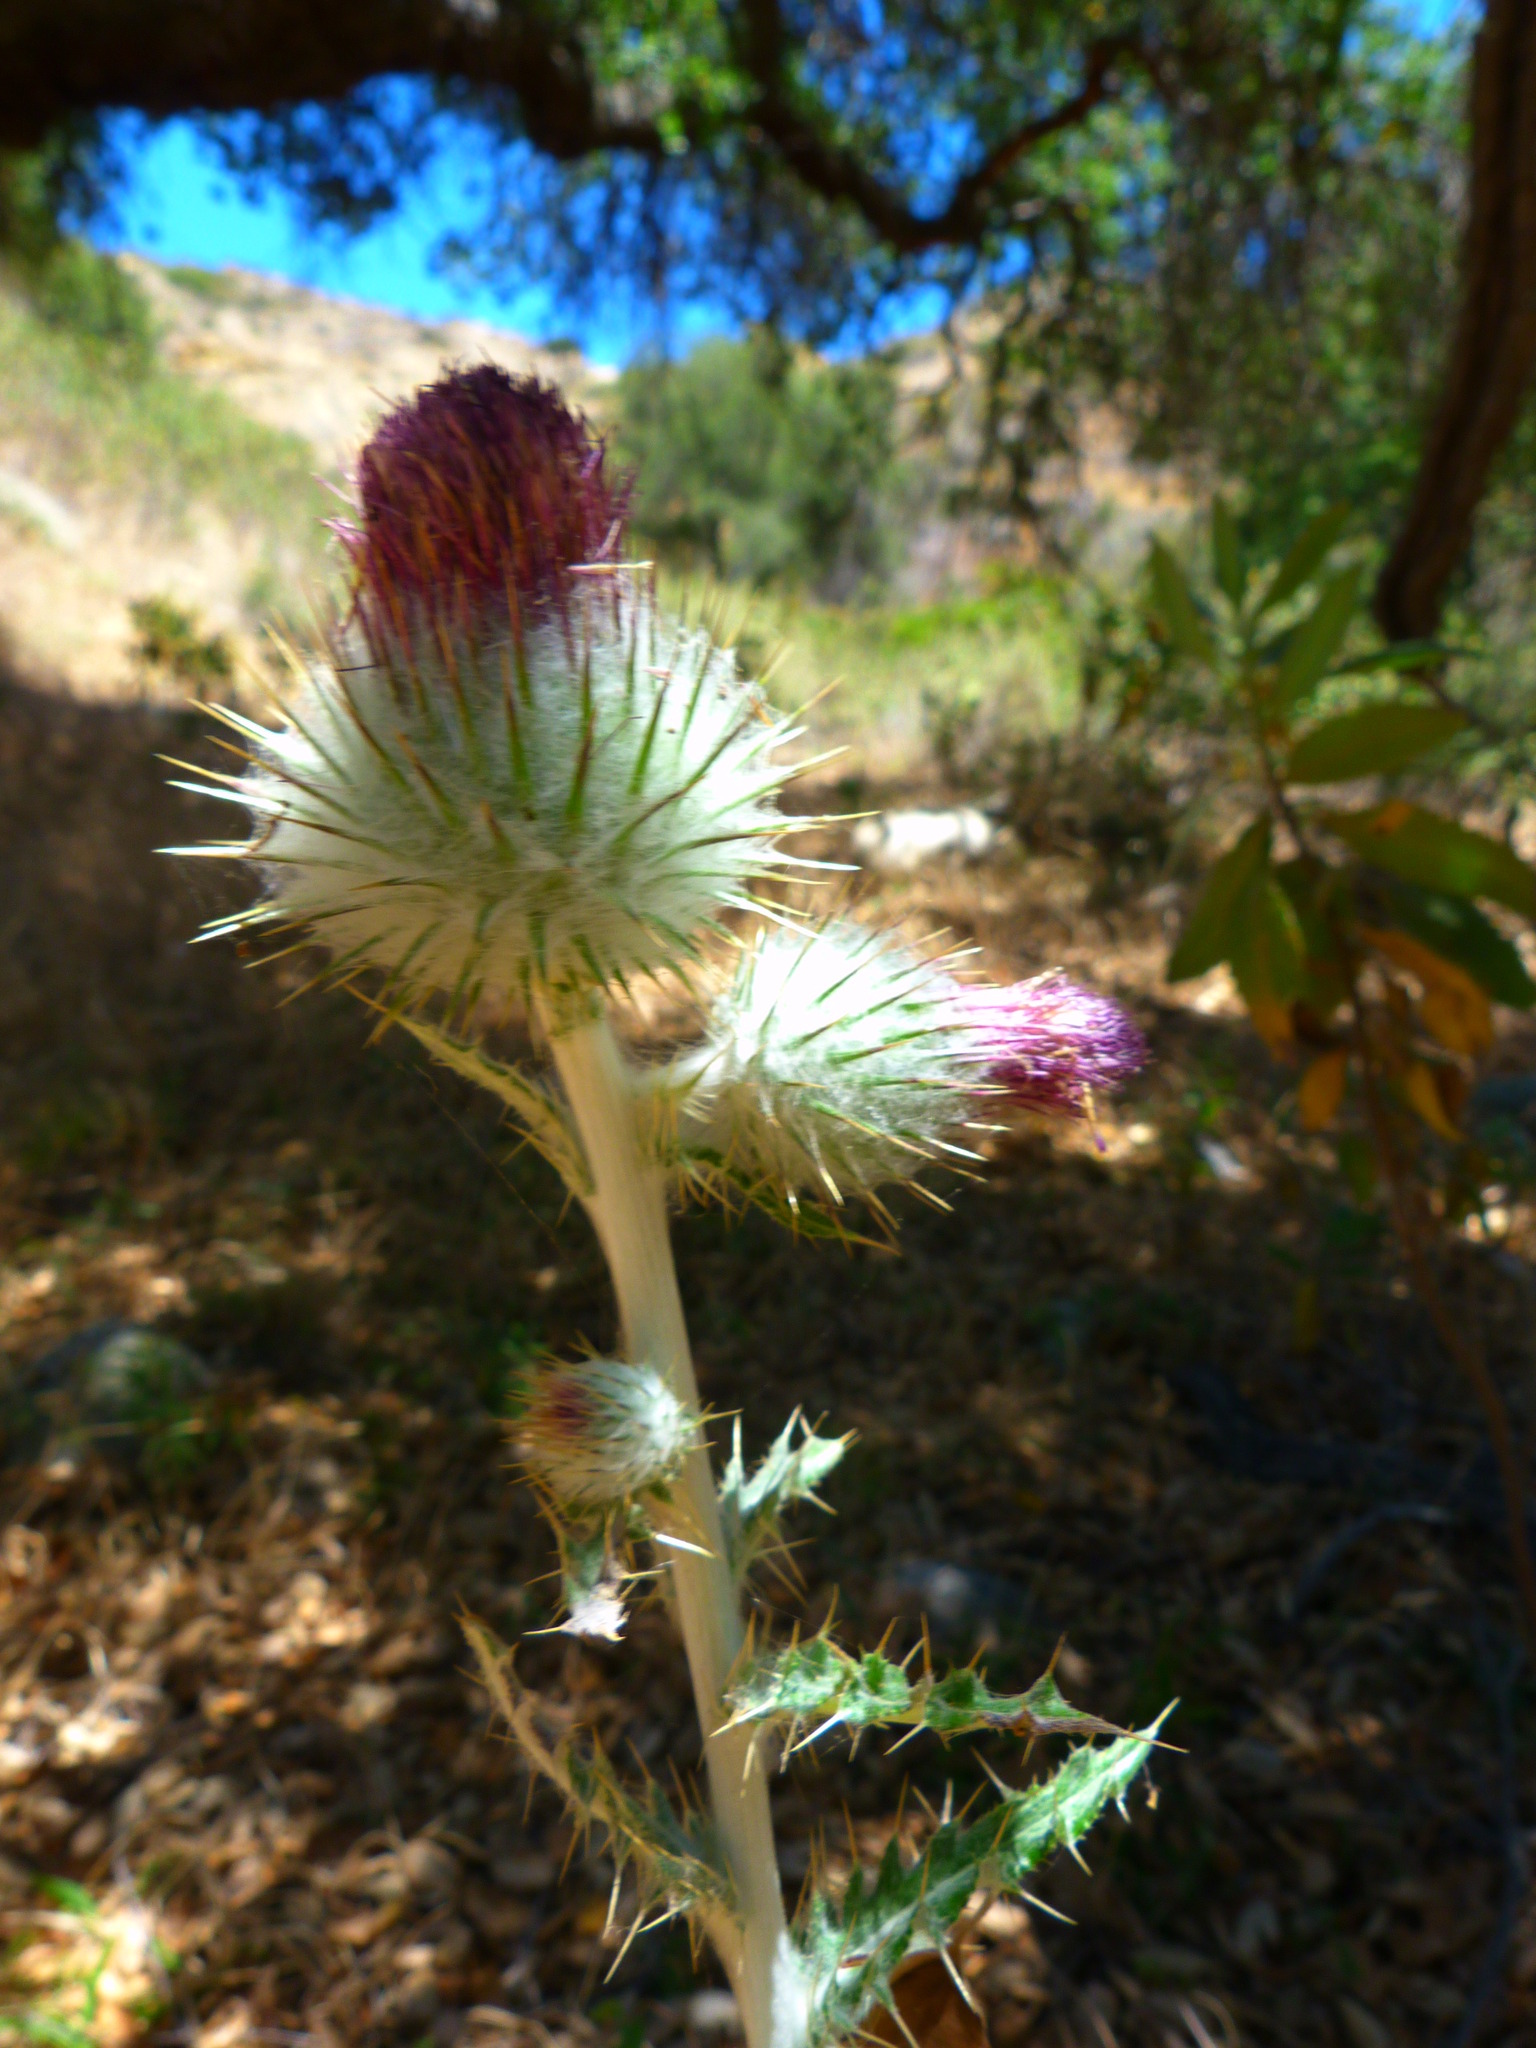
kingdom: Plantae
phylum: Tracheophyta
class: Magnoliopsida
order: Asterales
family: Asteraceae
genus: Cirsium
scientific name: Cirsium occidentale
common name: Western thistle
